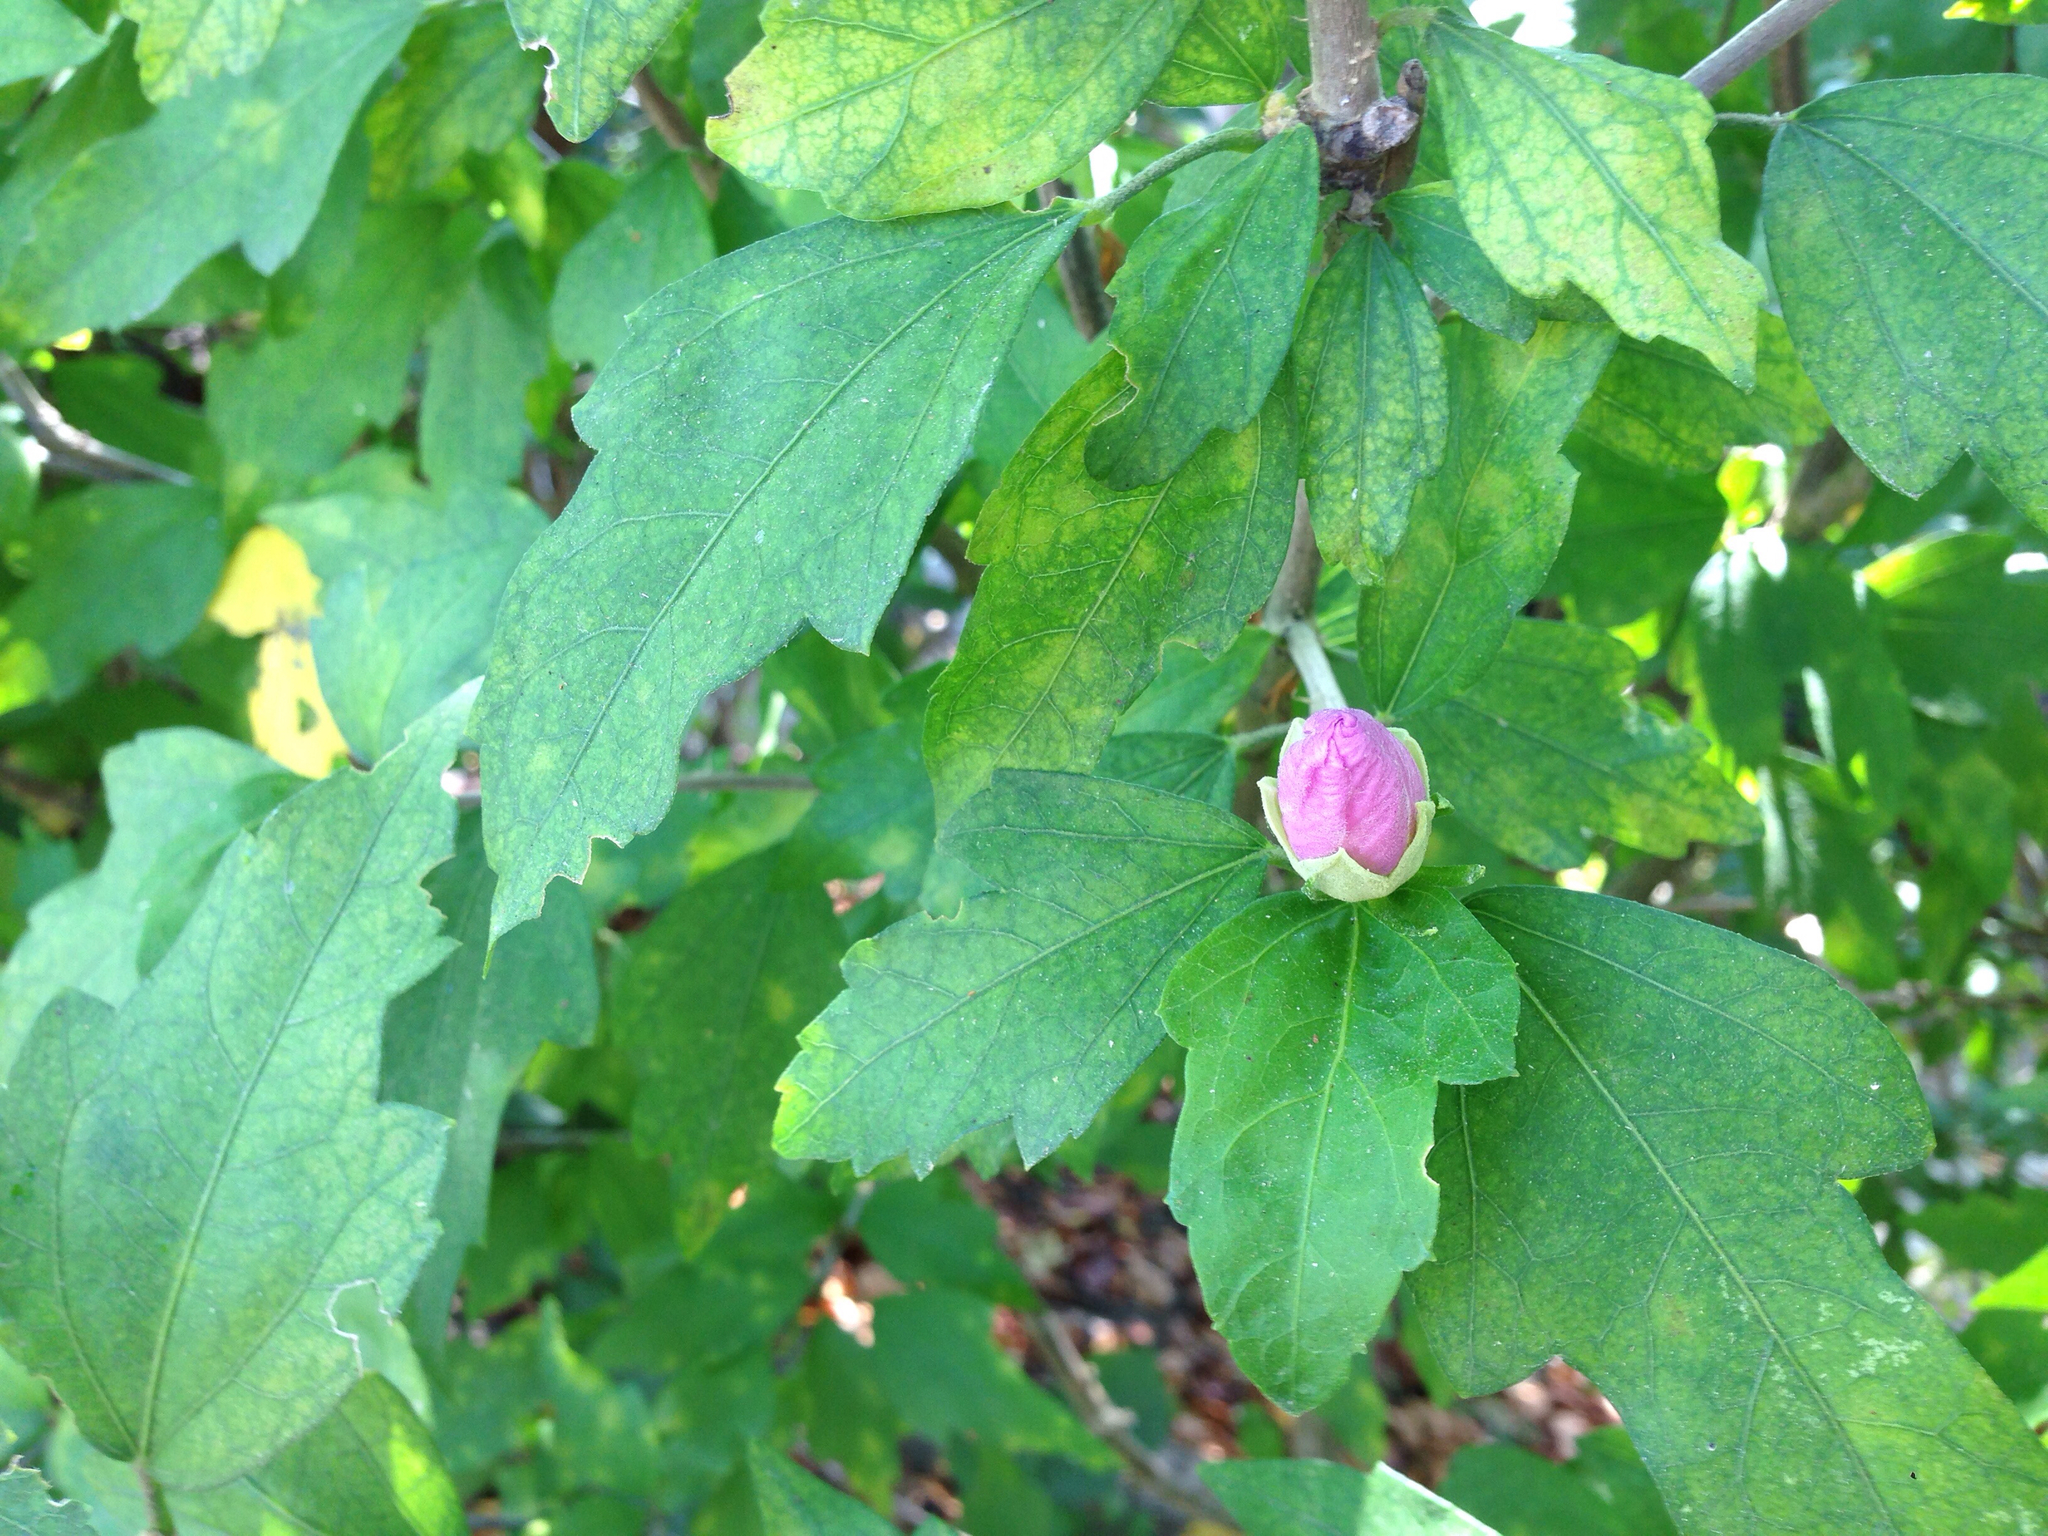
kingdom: Plantae
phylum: Tracheophyta
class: Magnoliopsida
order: Malvales
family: Malvaceae
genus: Hibiscus
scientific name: Hibiscus syriacus
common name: Syrian ketmia
